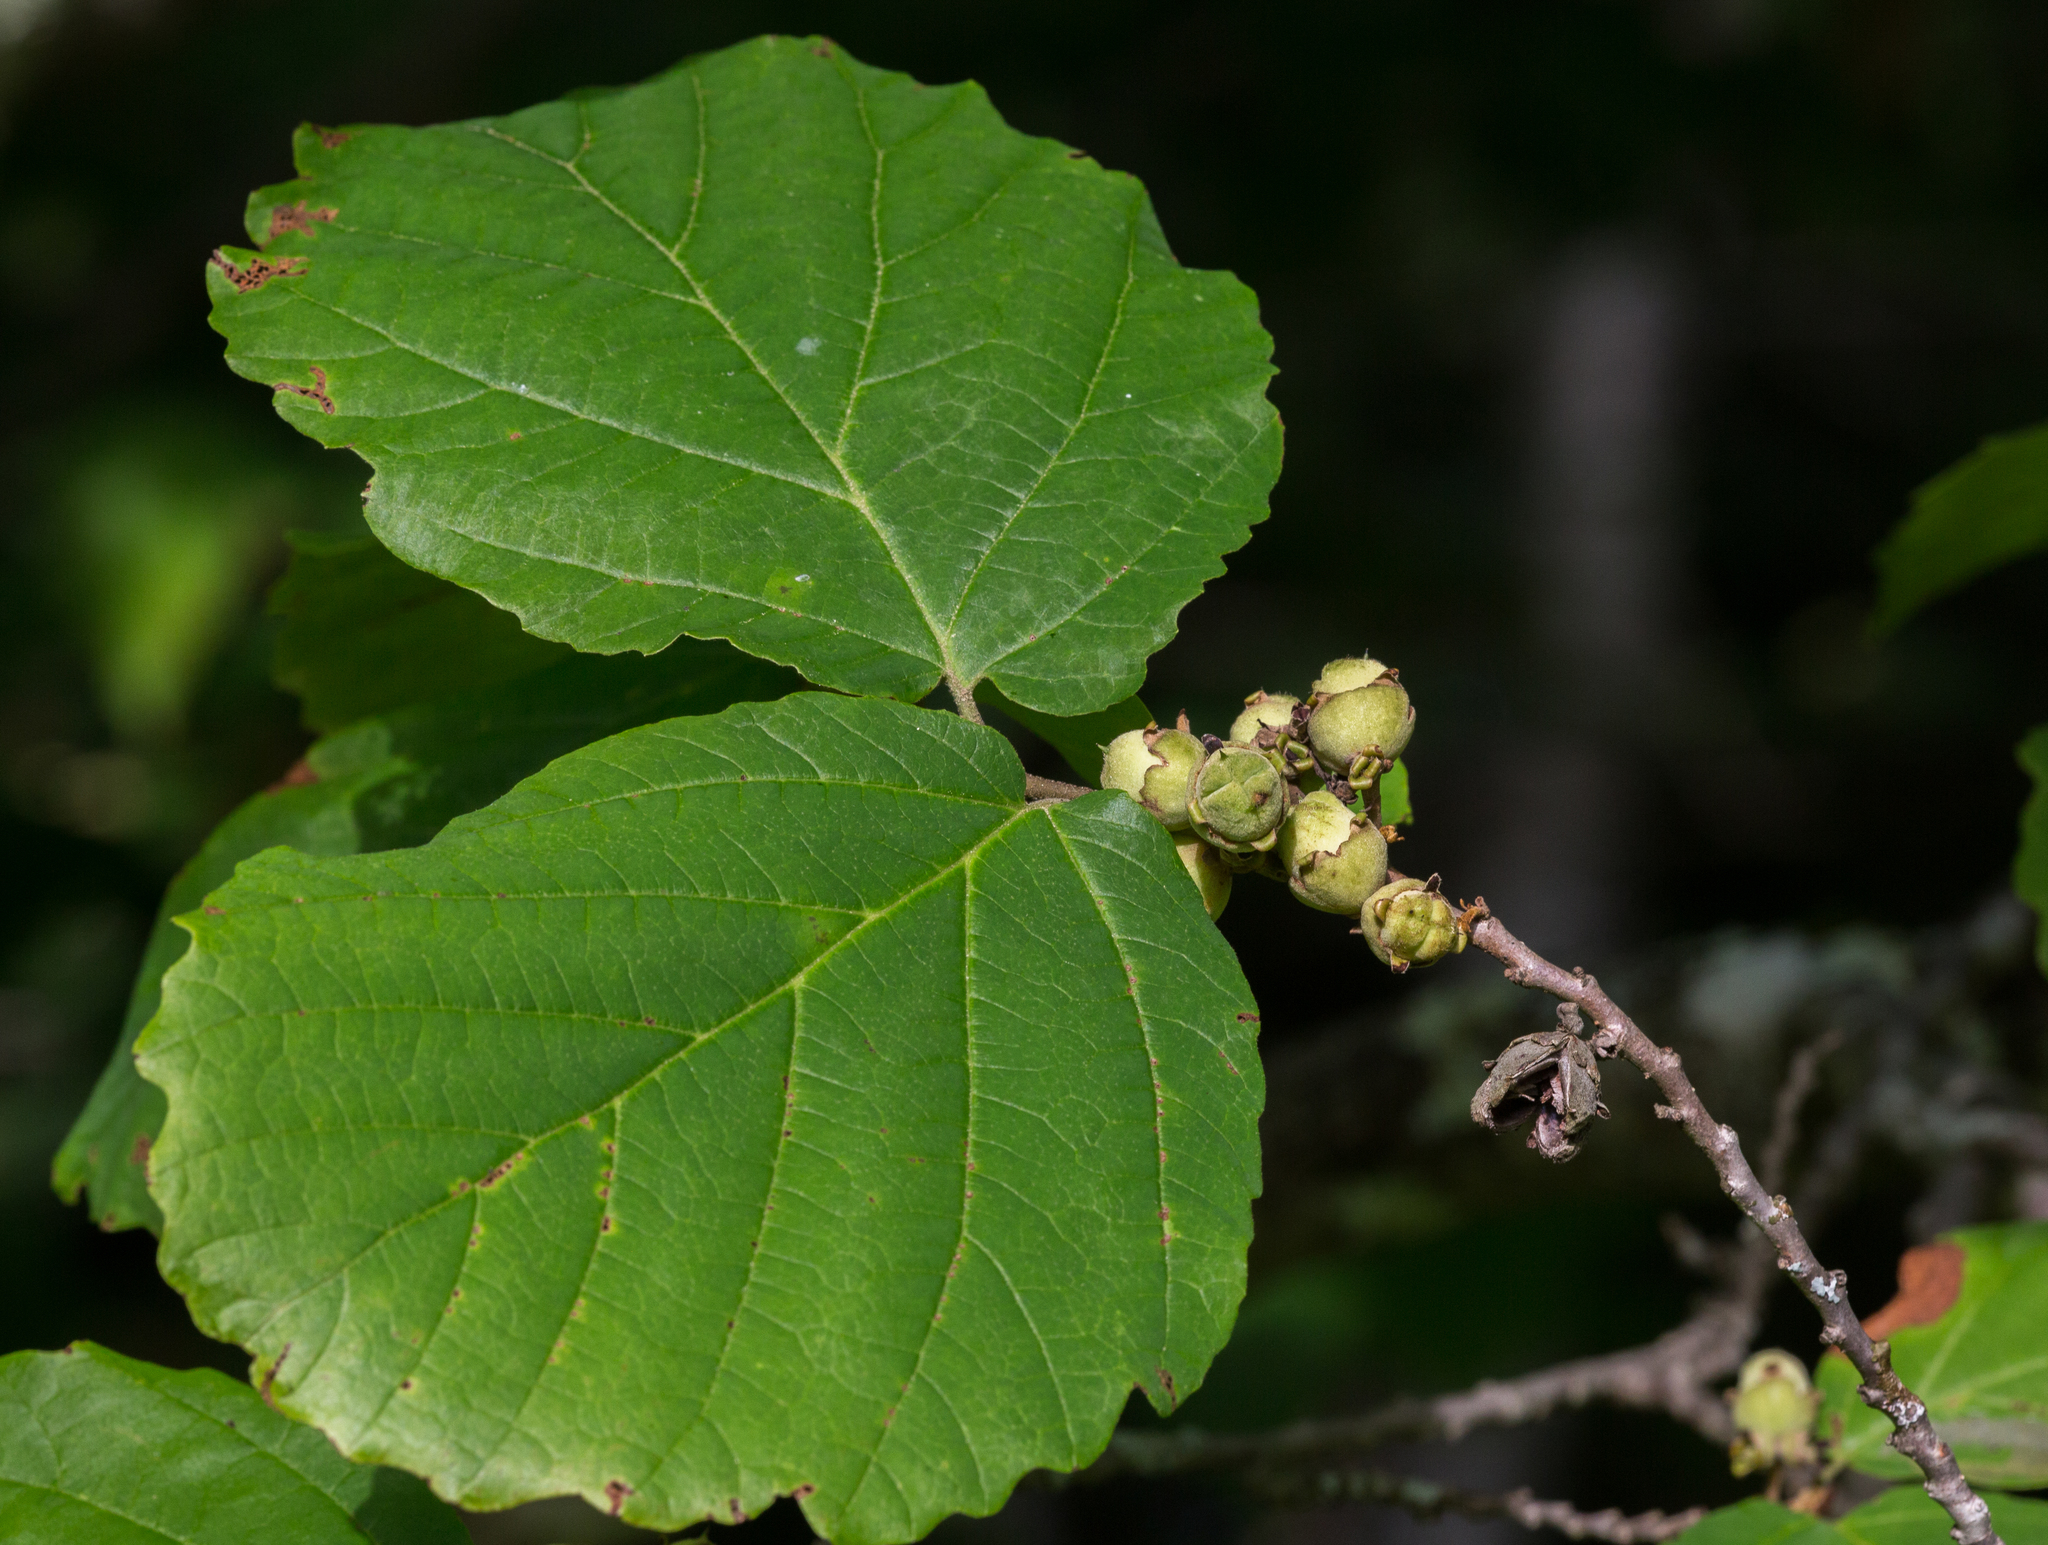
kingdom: Plantae
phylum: Tracheophyta
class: Magnoliopsida
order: Saxifragales
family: Hamamelidaceae
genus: Hamamelis
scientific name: Hamamelis virginiana
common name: Witch-hazel
